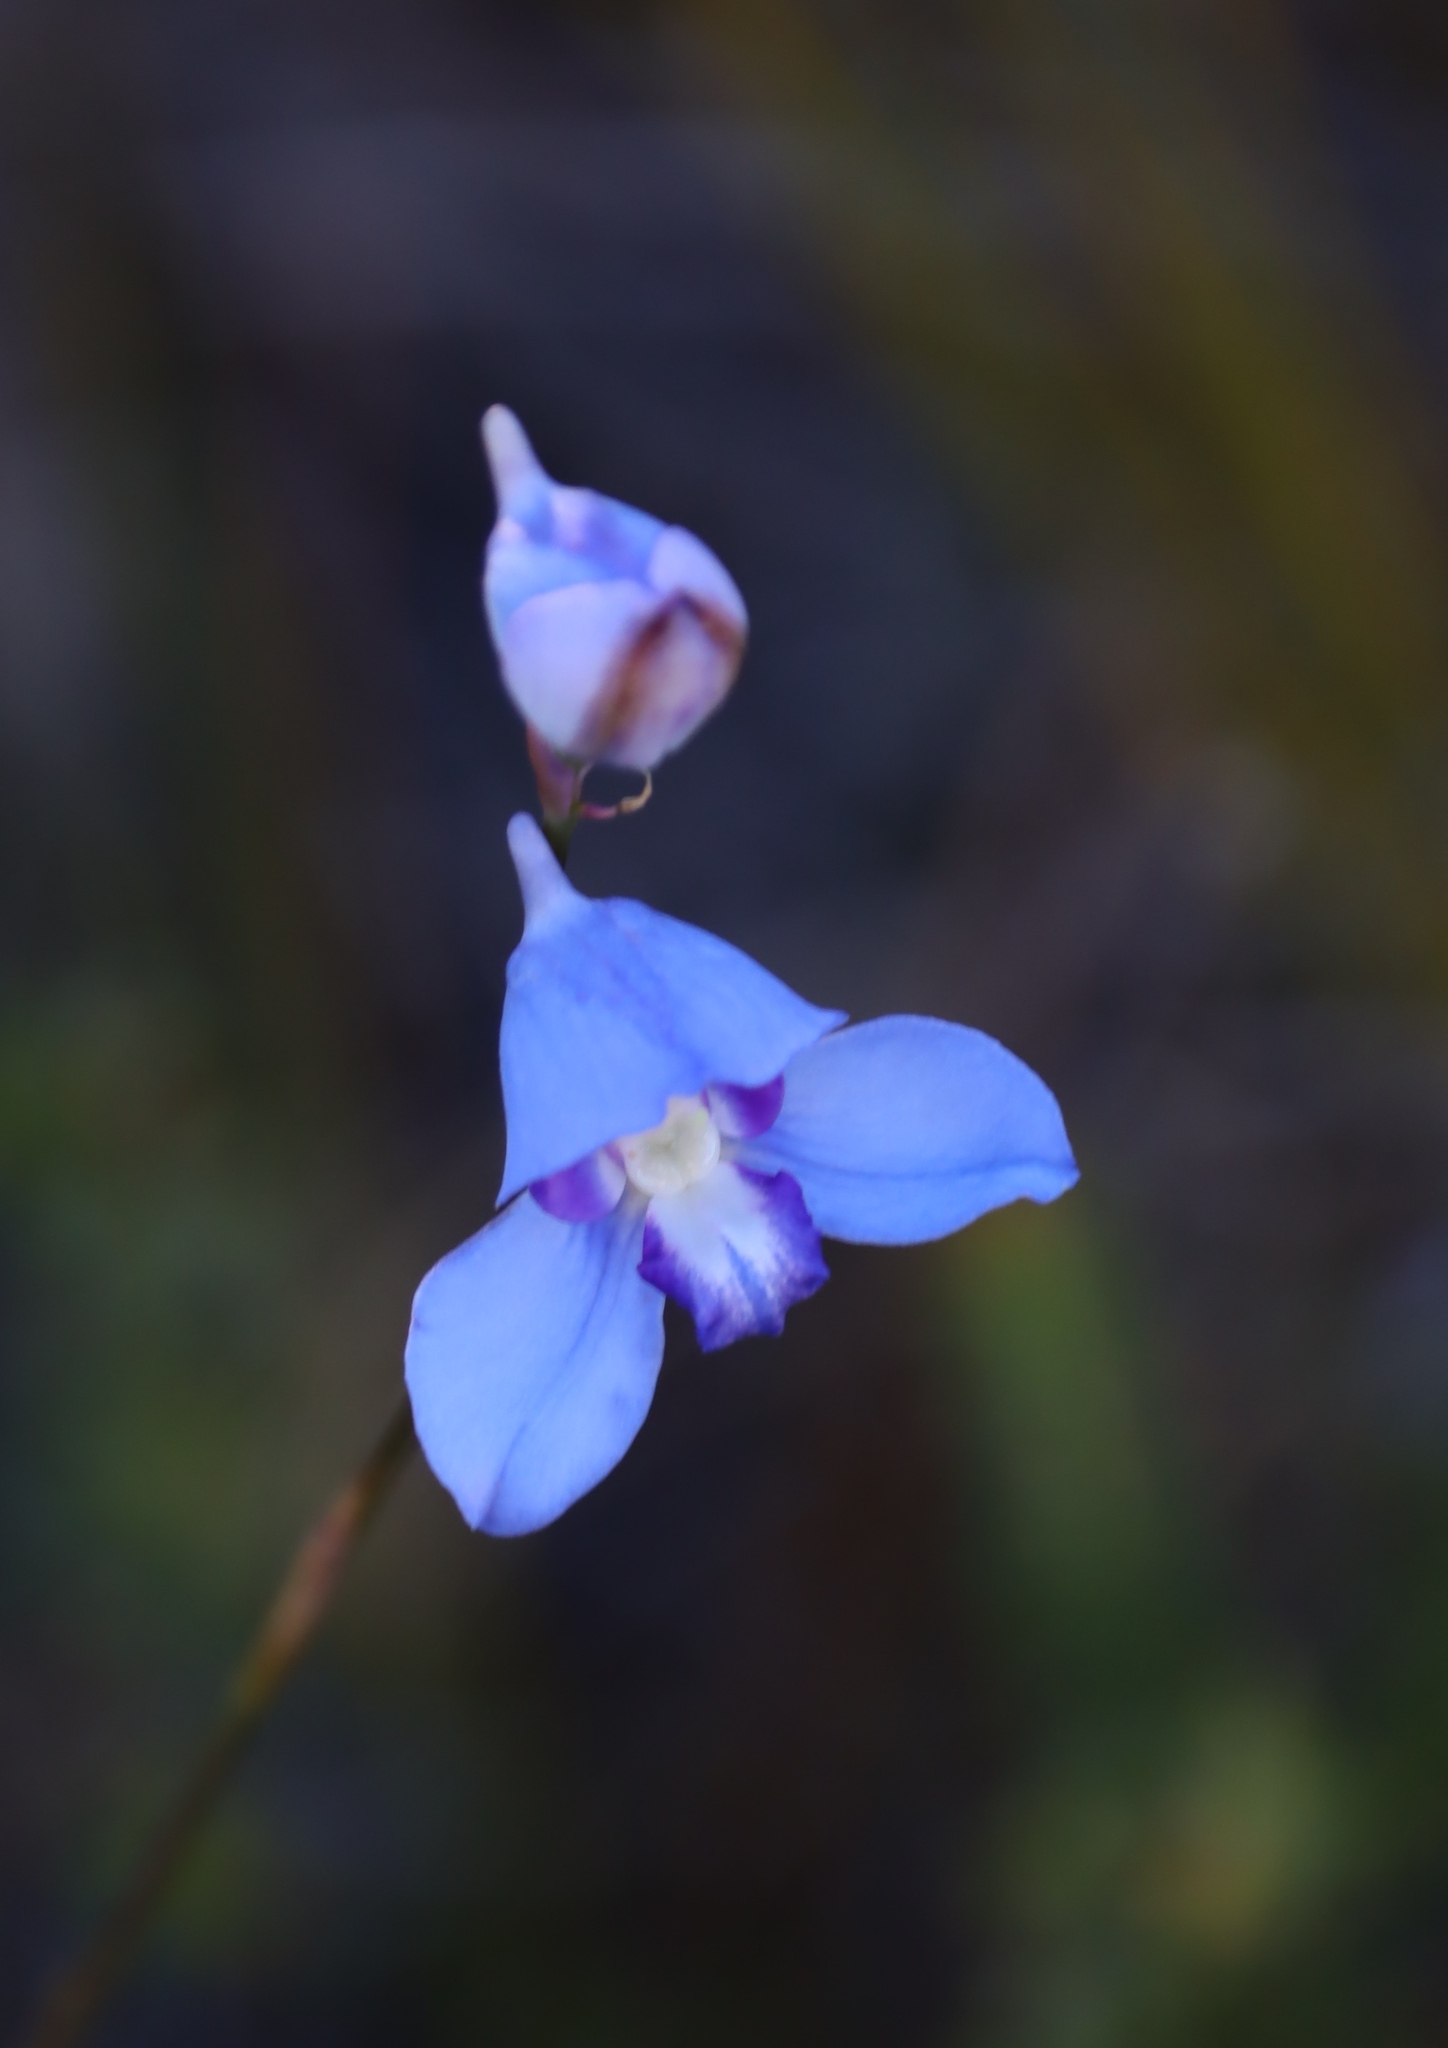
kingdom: Plantae
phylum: Tracheophyta
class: Liliopsida
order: Asparagales
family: Orchidaceae
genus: Disa
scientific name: Disa graminifolia
